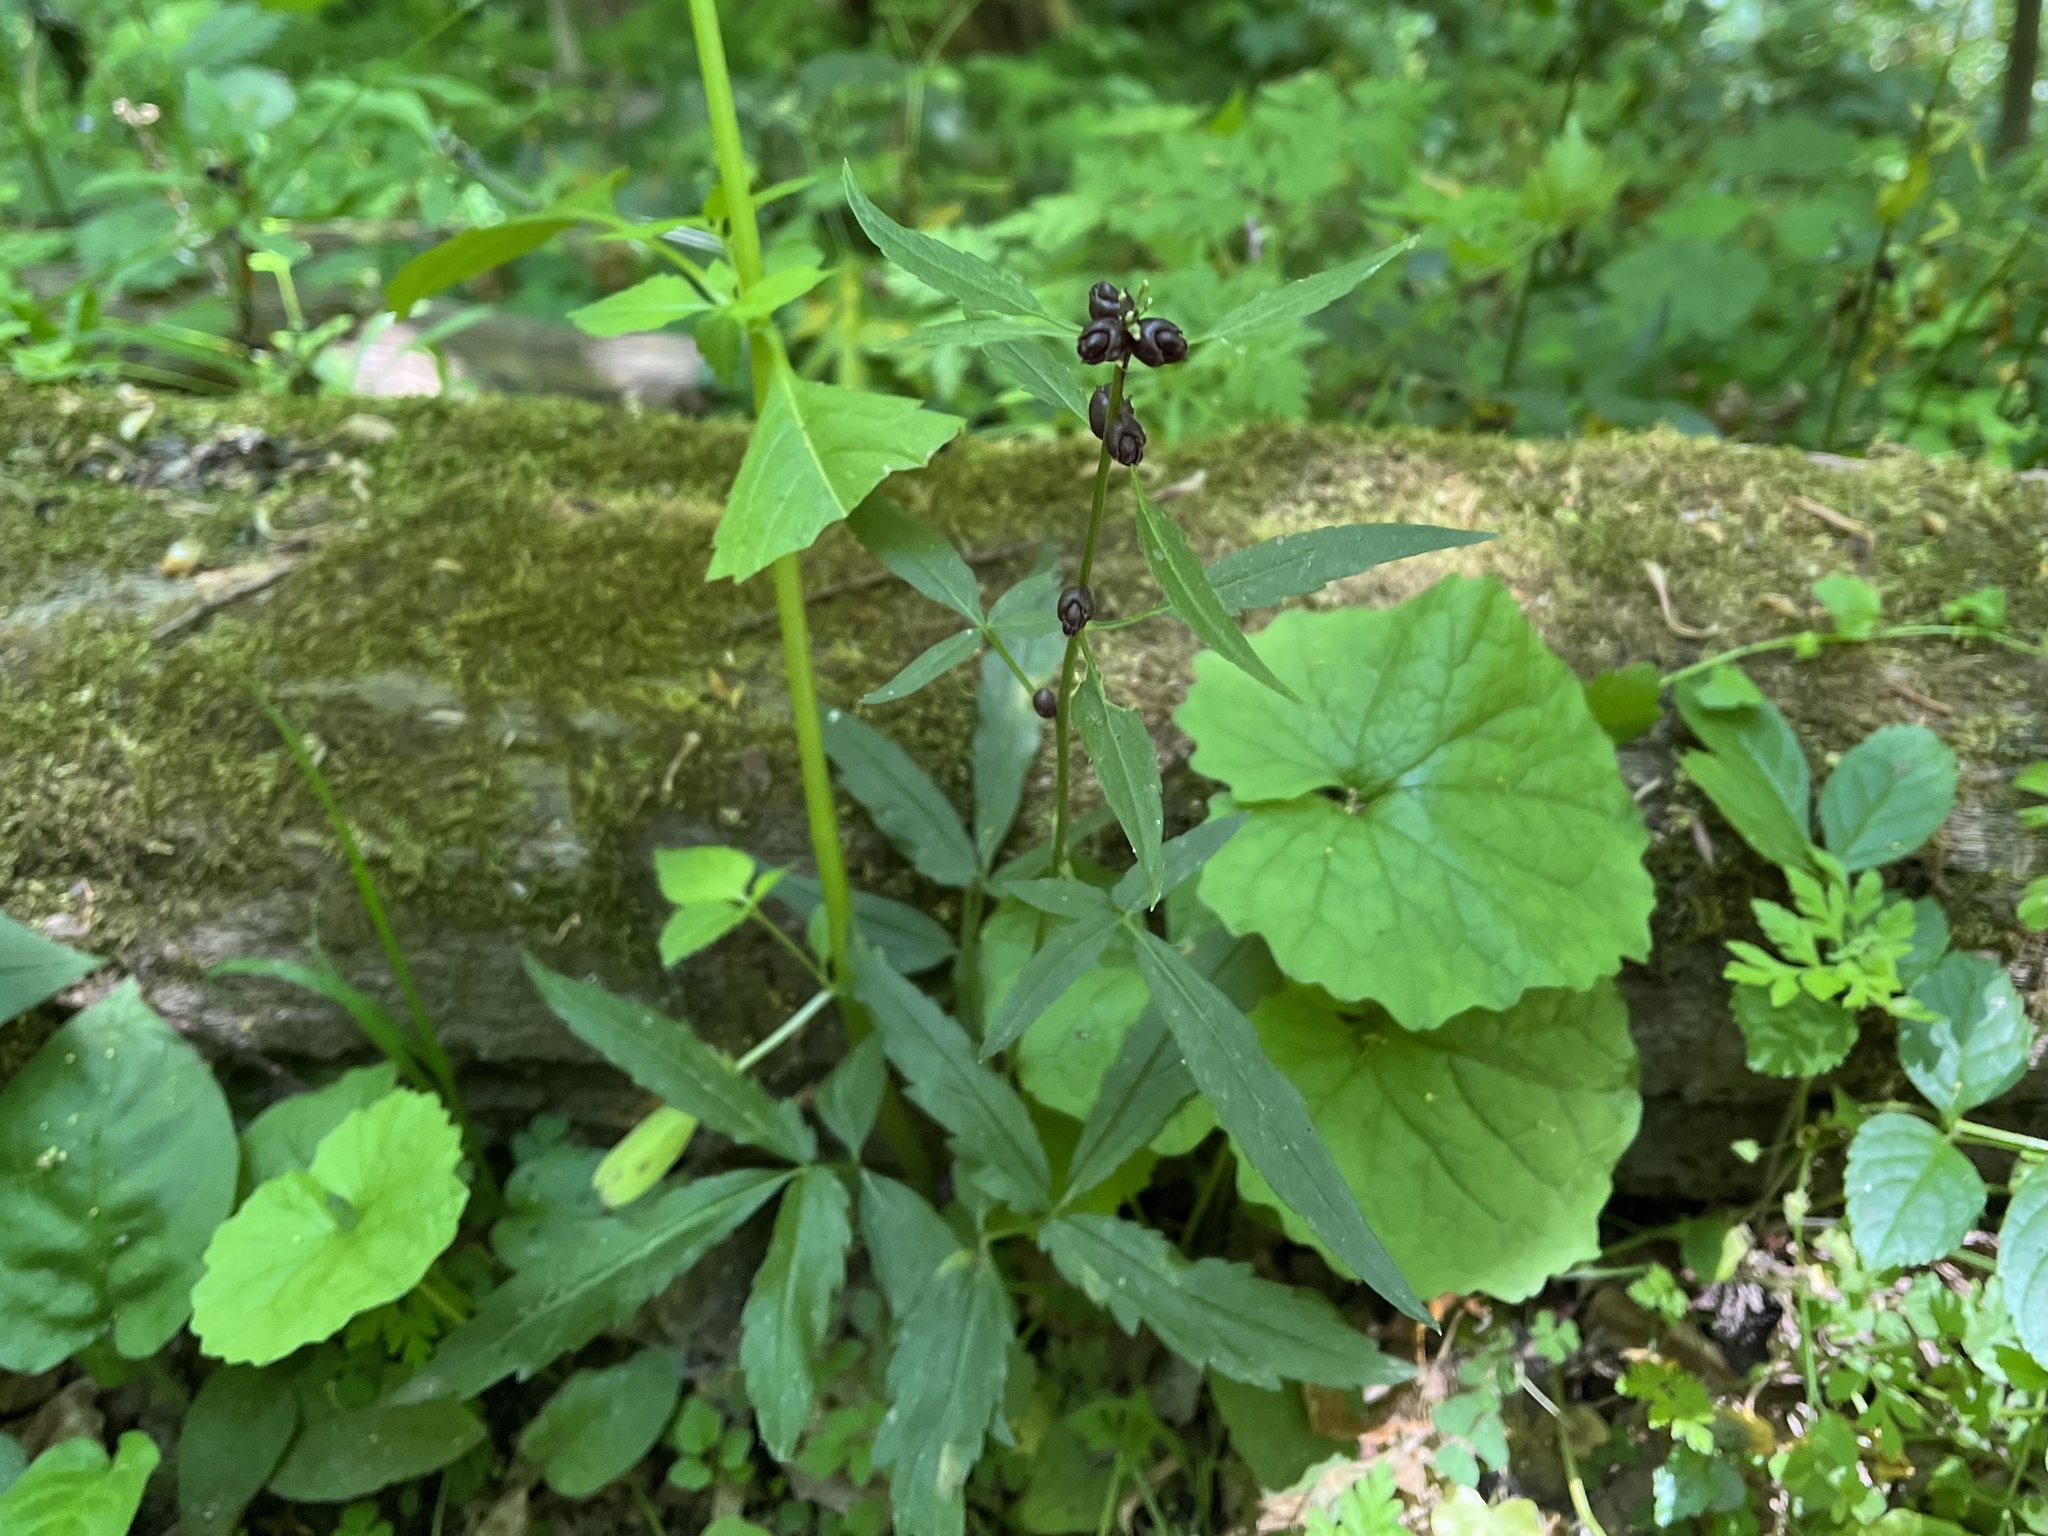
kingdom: Plantae
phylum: Tracheophyta
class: Magnoliopsida
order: Brassicales
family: Brassicaceae
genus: Cardamine
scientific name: Cardamine bulbifera
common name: Coralroot bittercress
